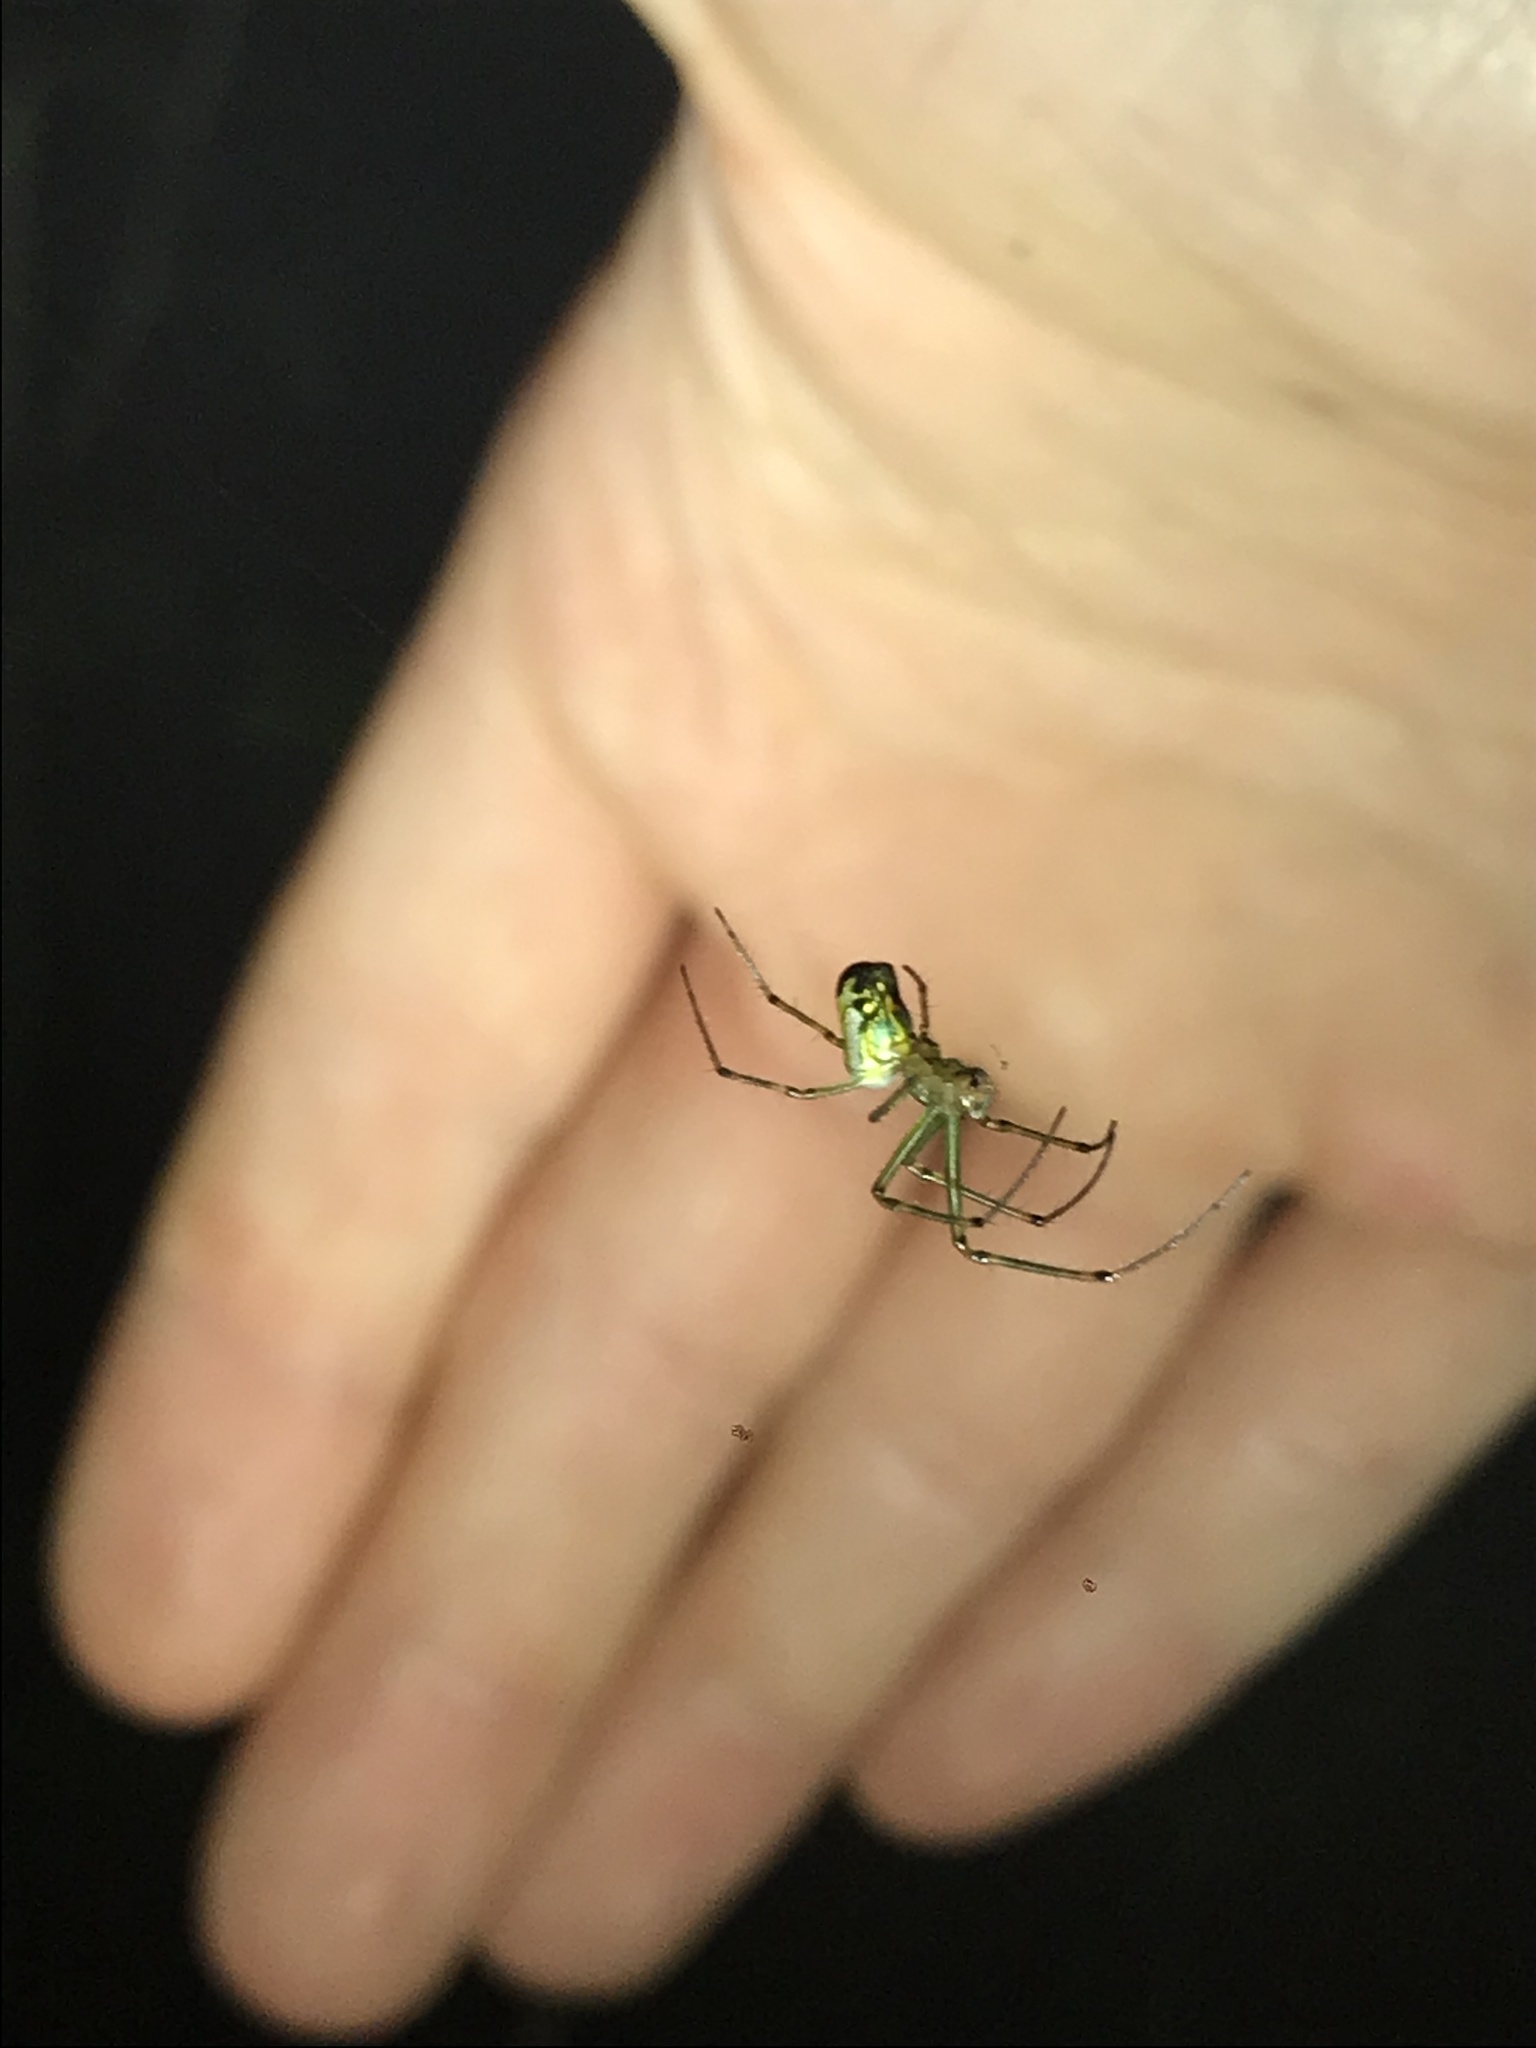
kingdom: Animalia
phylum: Arthropoda
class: Arachnida
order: Araneae
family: Tetragnathidae
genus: Leucauge
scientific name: Leucauge venusta
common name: Longjawed orb weavers
